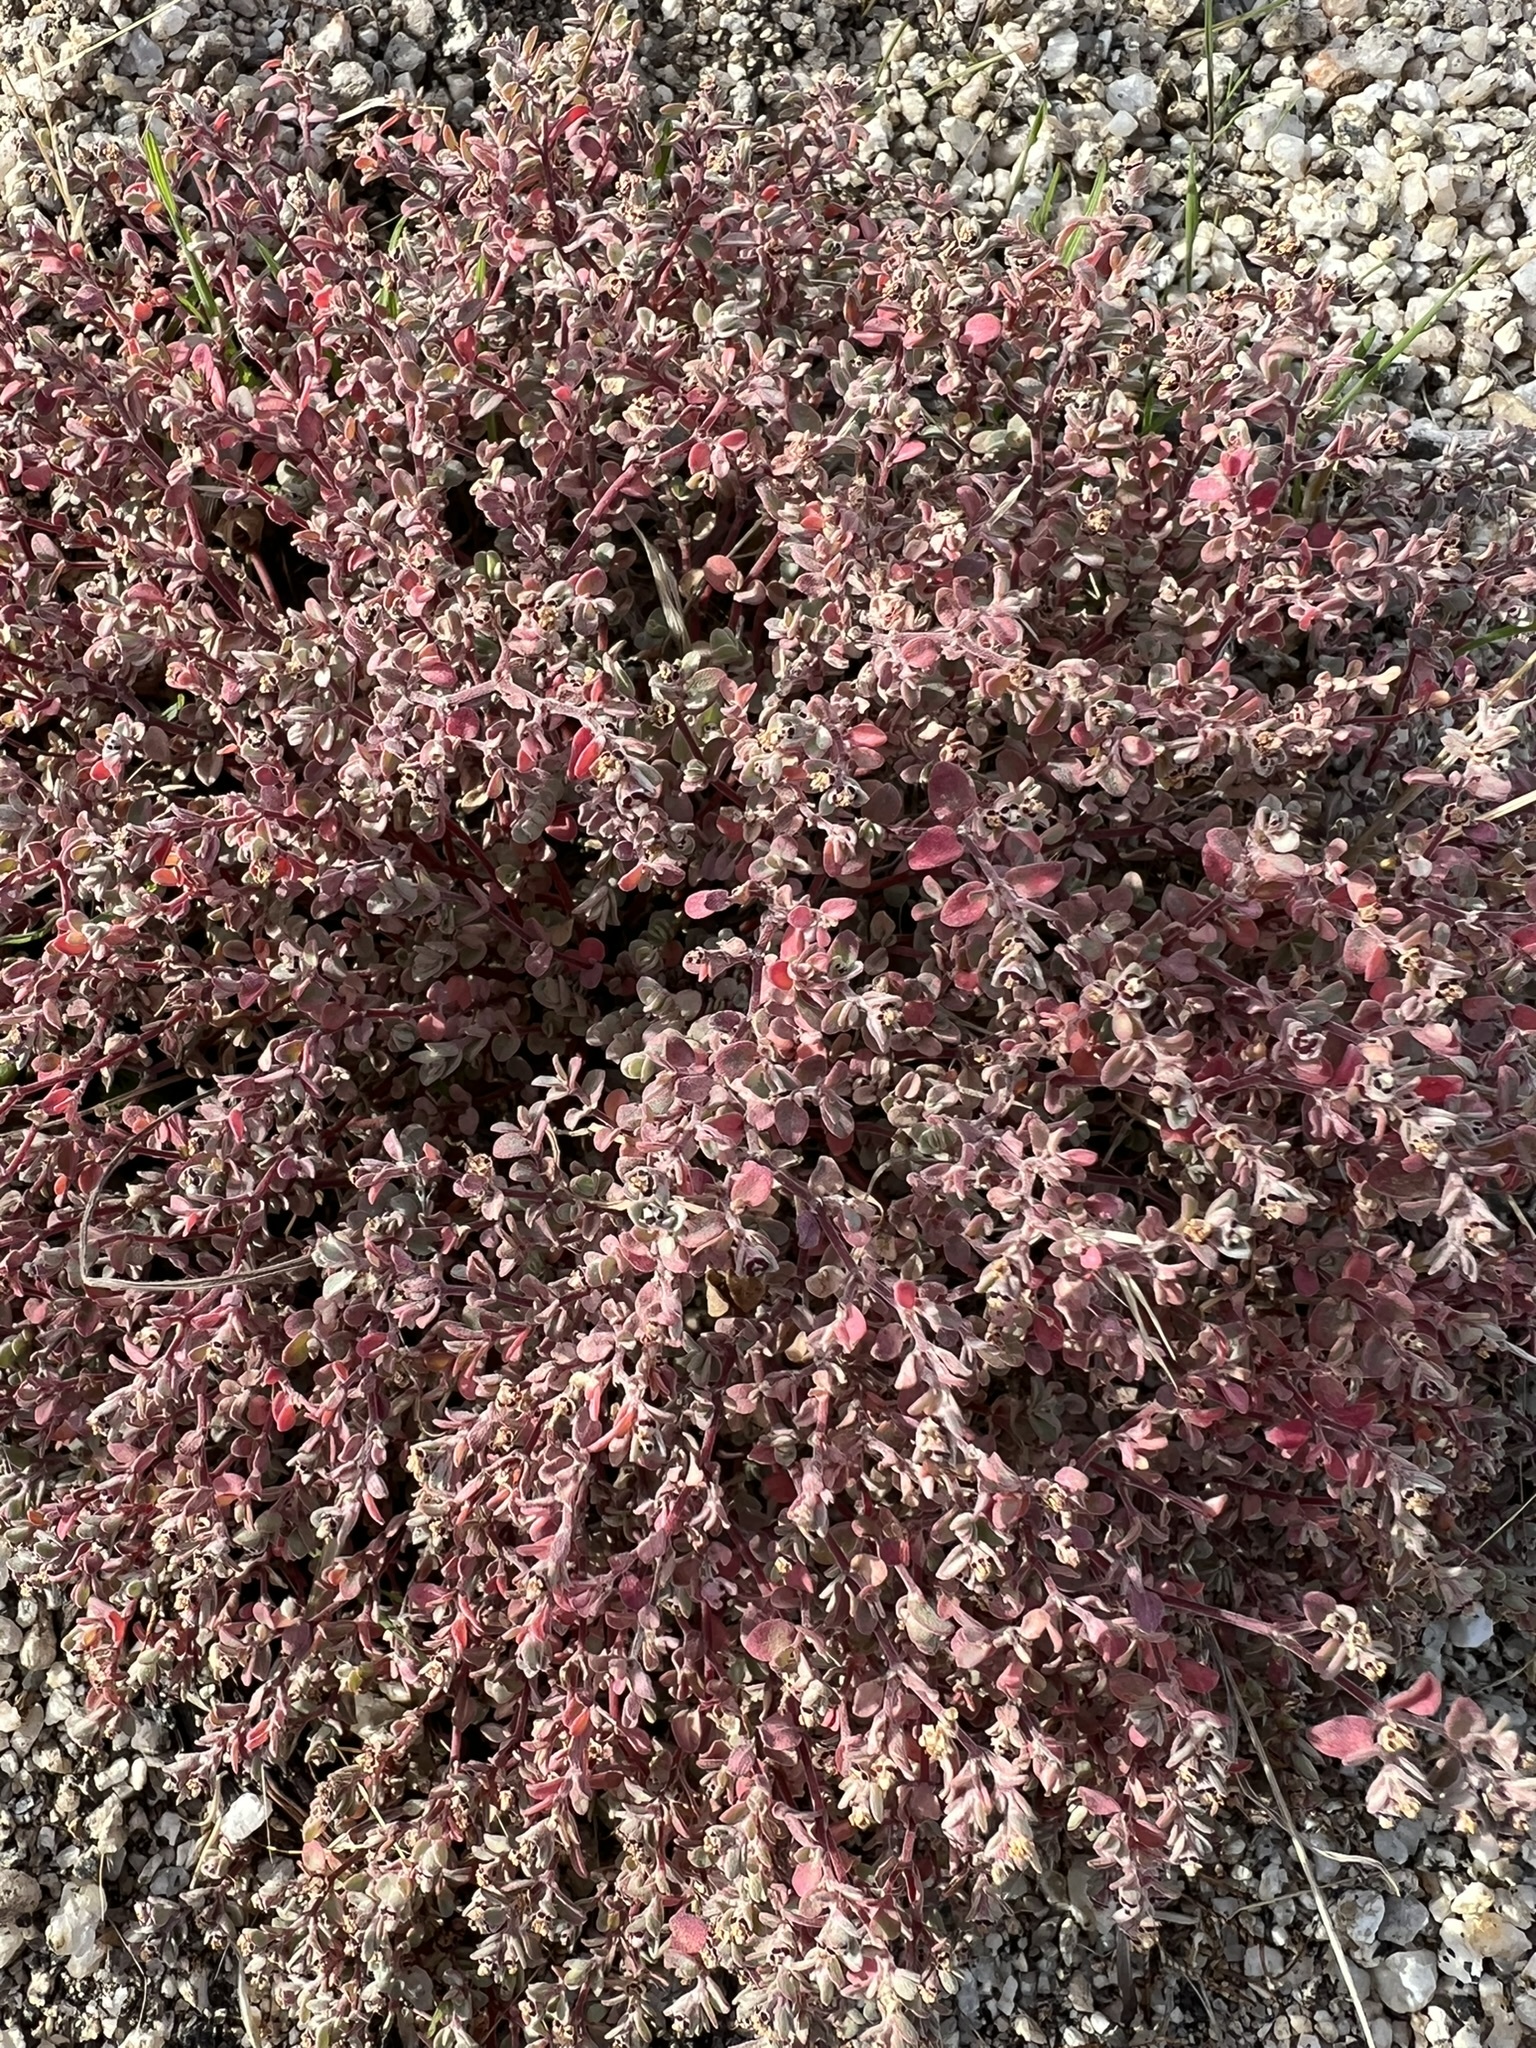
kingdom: Plantae
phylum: Tracheophyta
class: Magnoliopsida
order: Malpighiales
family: Euphorbiaceae
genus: Euphorbia
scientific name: Euphorbia melanadenia
